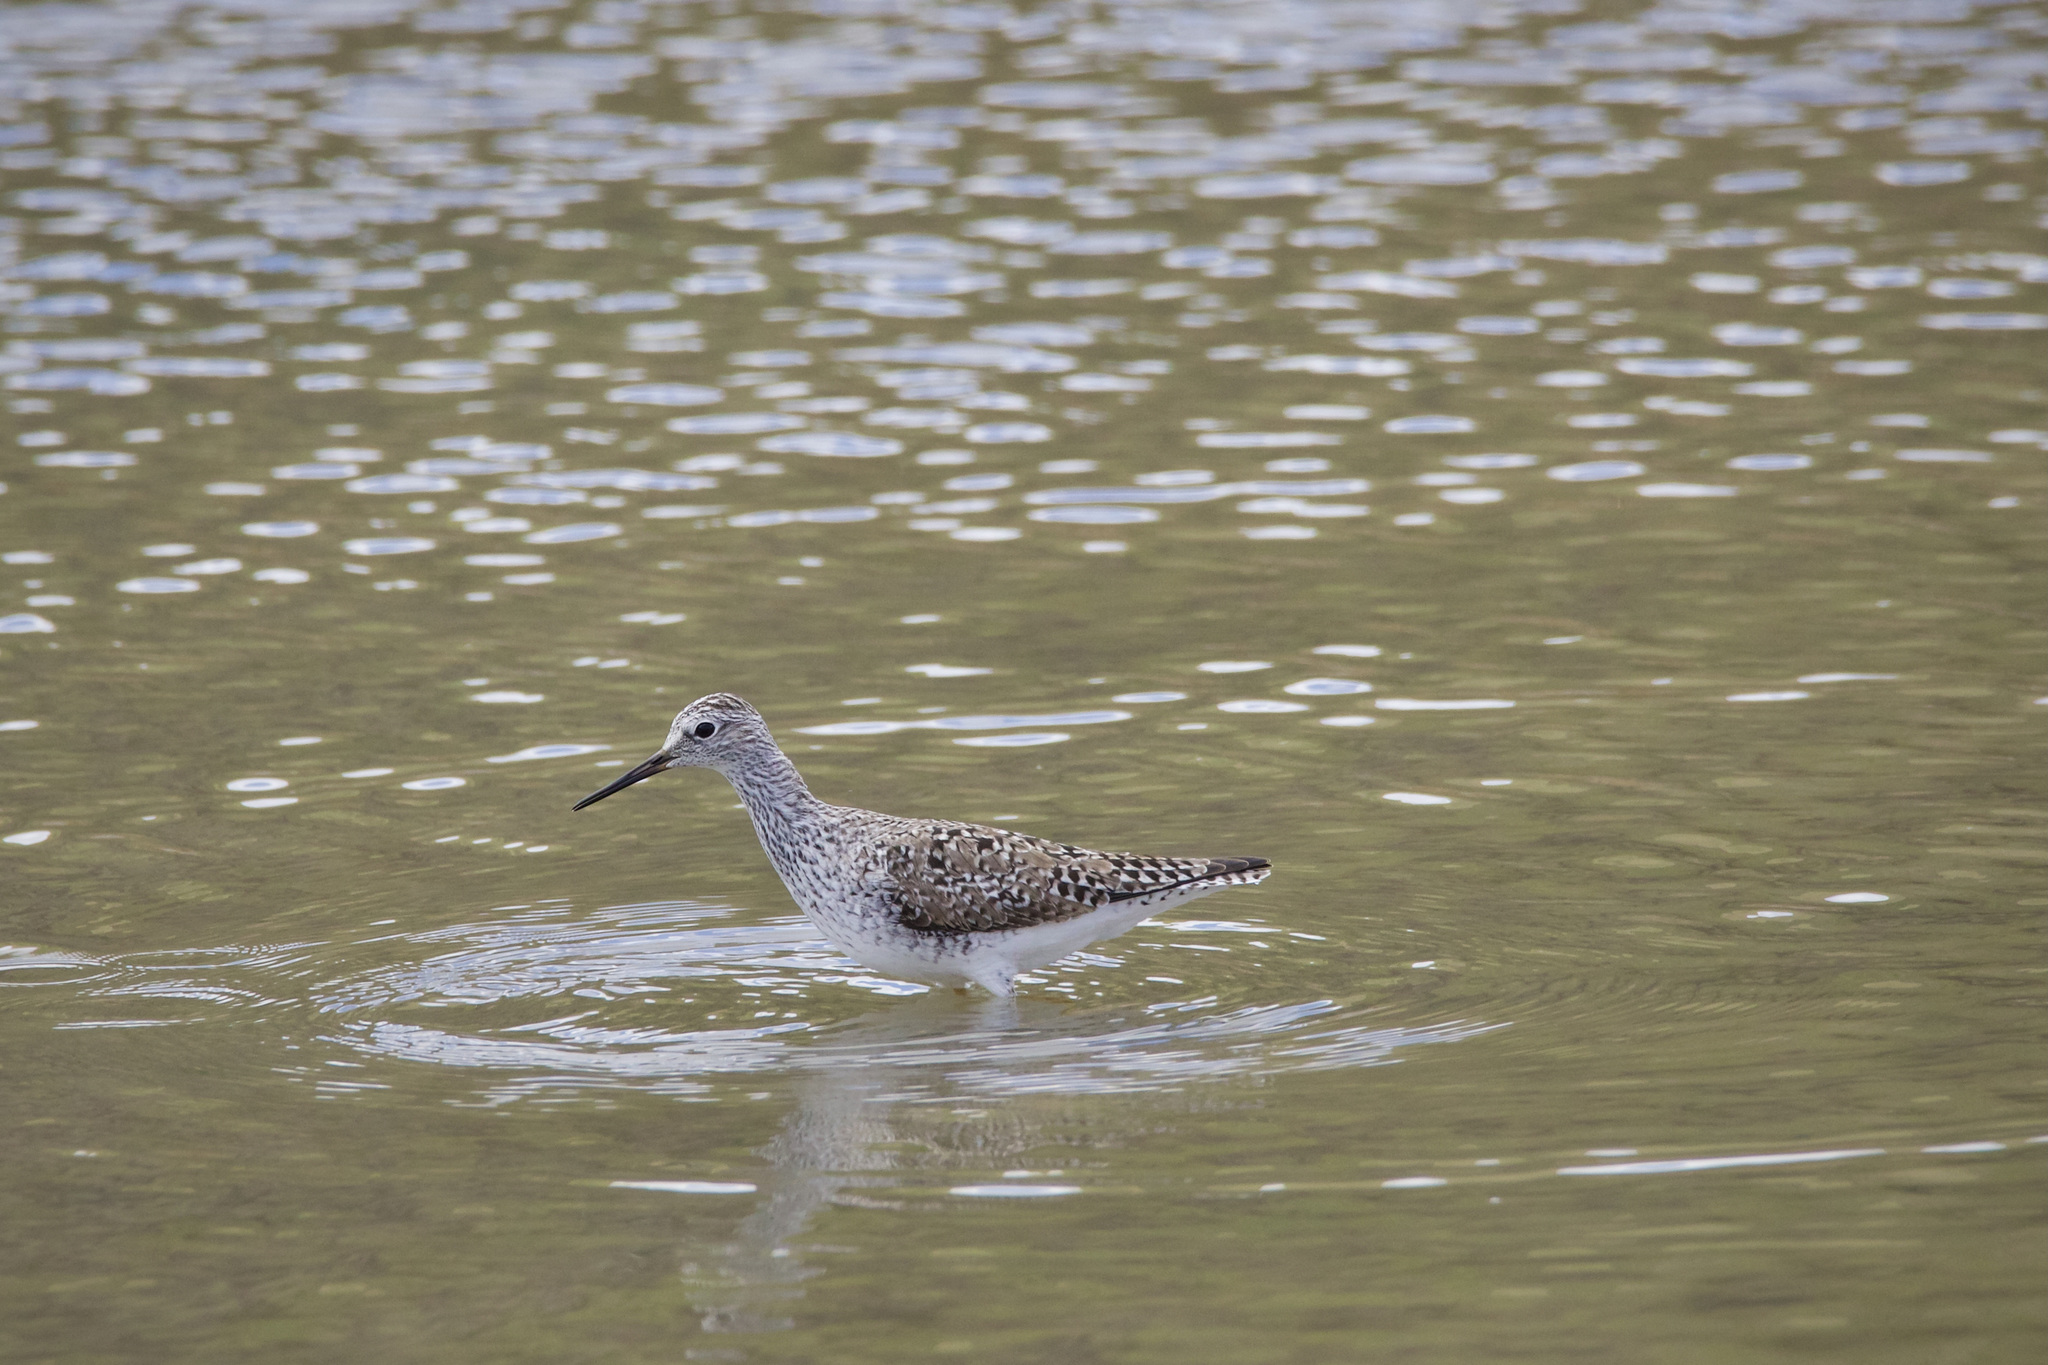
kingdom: Animalia
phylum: Chordata
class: Aves
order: Charadriiformes
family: Scolopacidae
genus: Tringa
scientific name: Tringa flavipes
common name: Lesser yellowlegs
